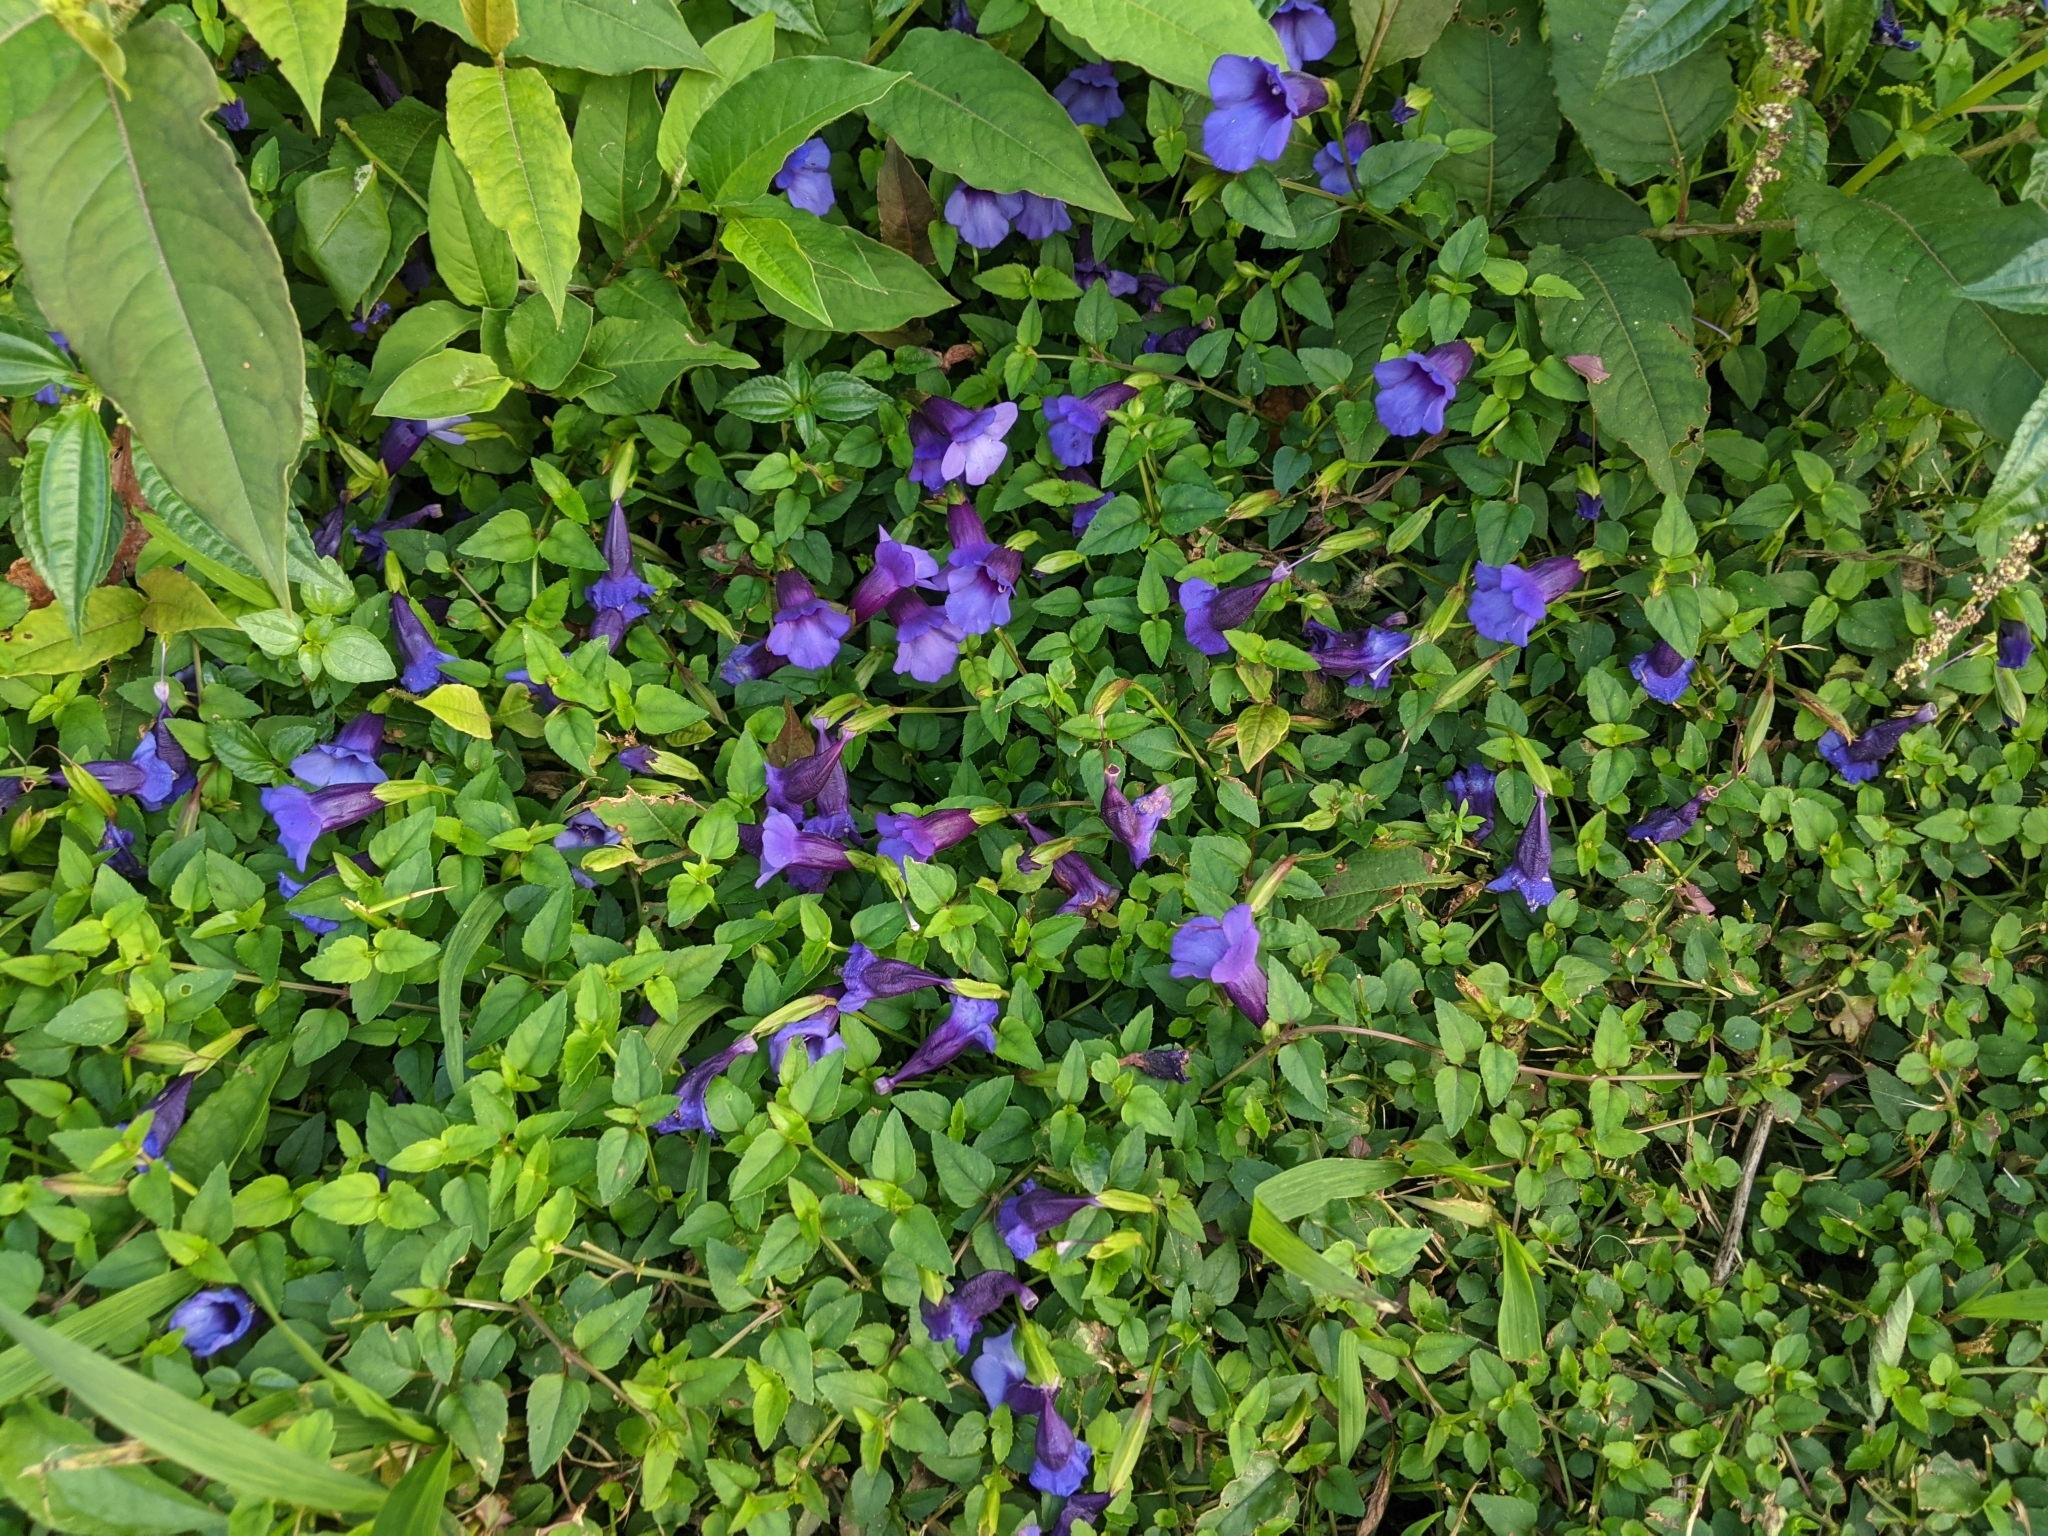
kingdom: Plantae
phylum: Tracheophyta
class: Magnoliopsida
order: Lamiales
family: Linderniaceae
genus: Torenia
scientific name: Torenia concolor
